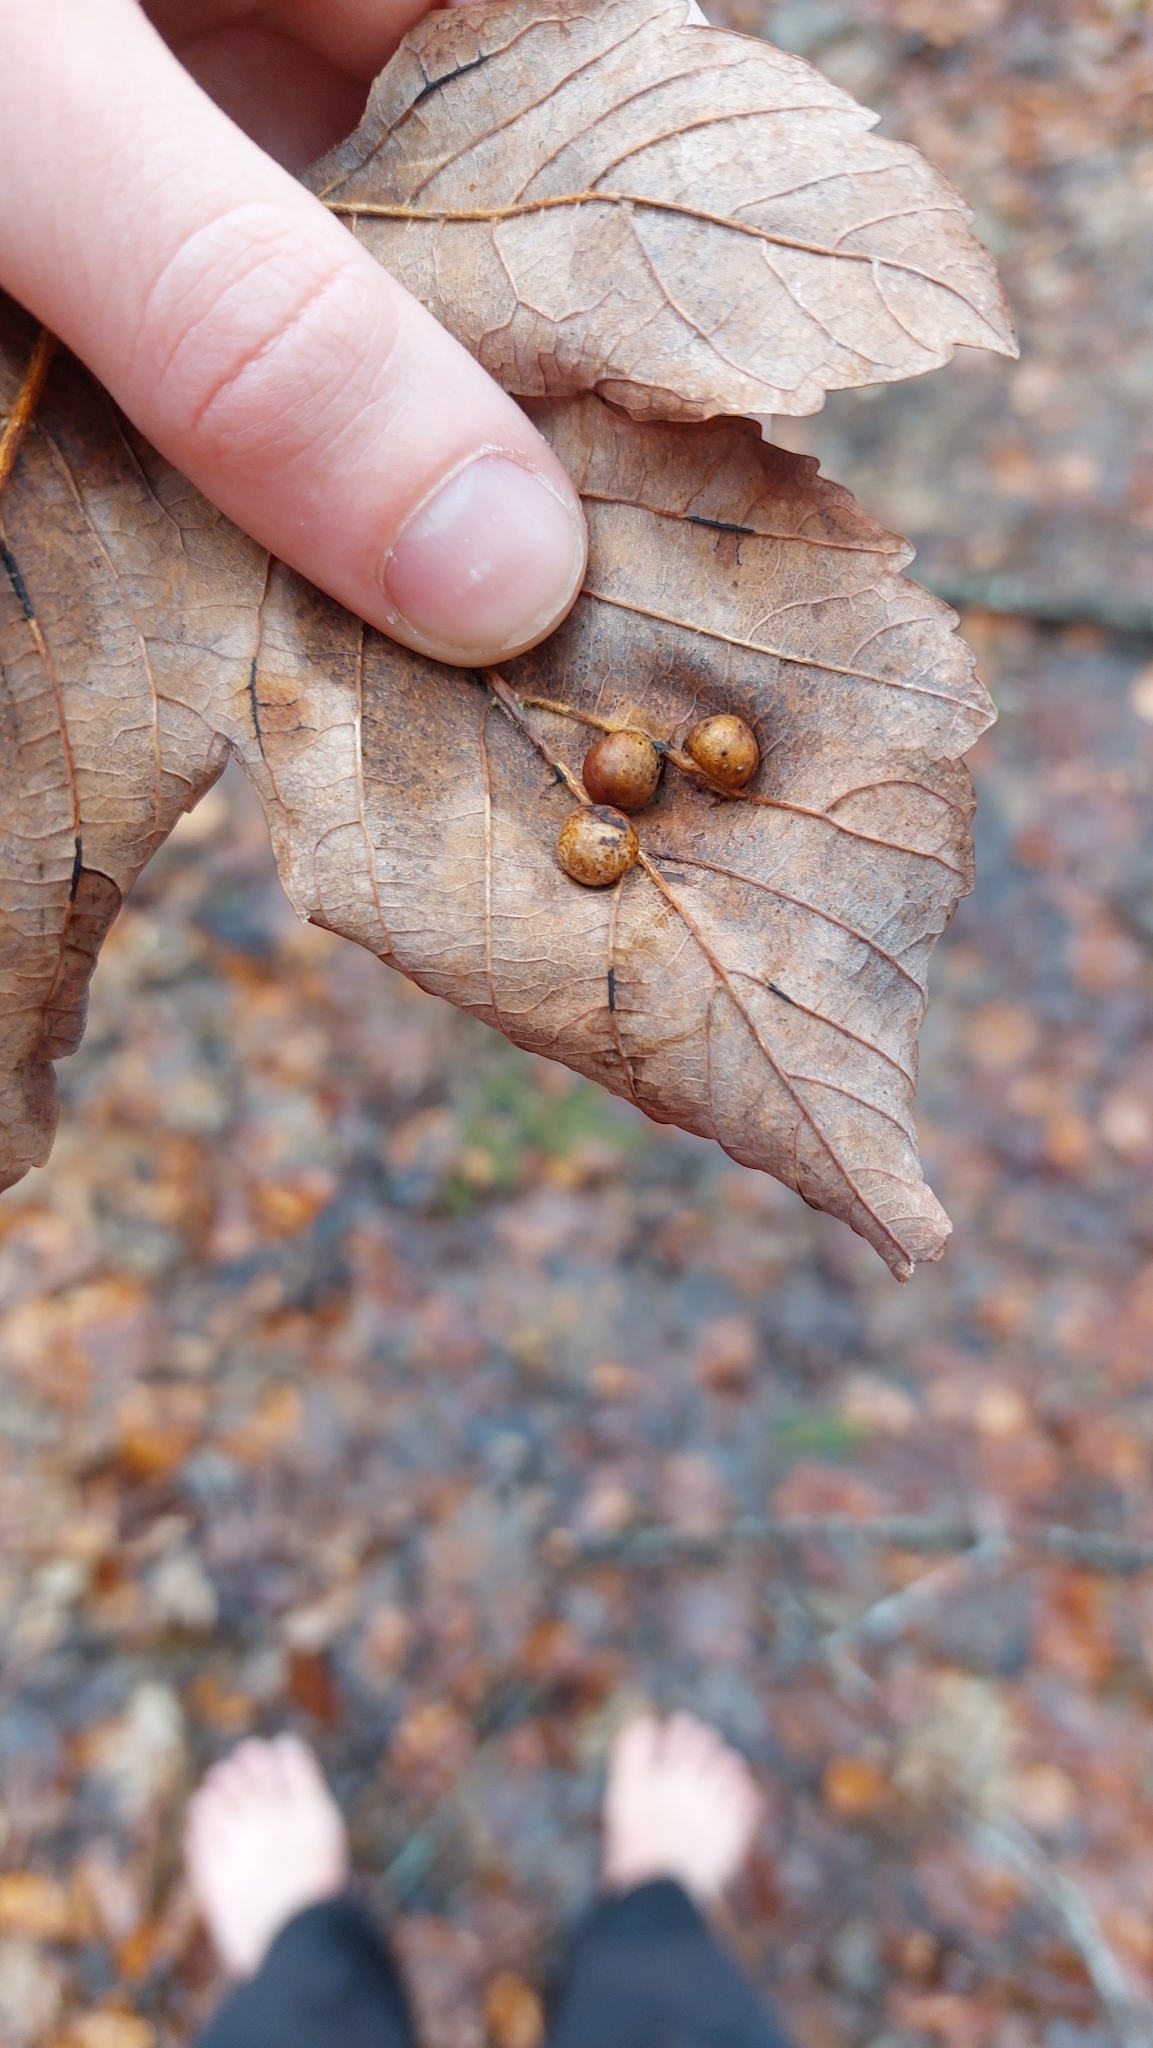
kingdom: Animalia
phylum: Arthropoda
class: Insecta
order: Hymenoptera
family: Cynipidae
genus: Pediaspis
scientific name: Pediaspis aceris
